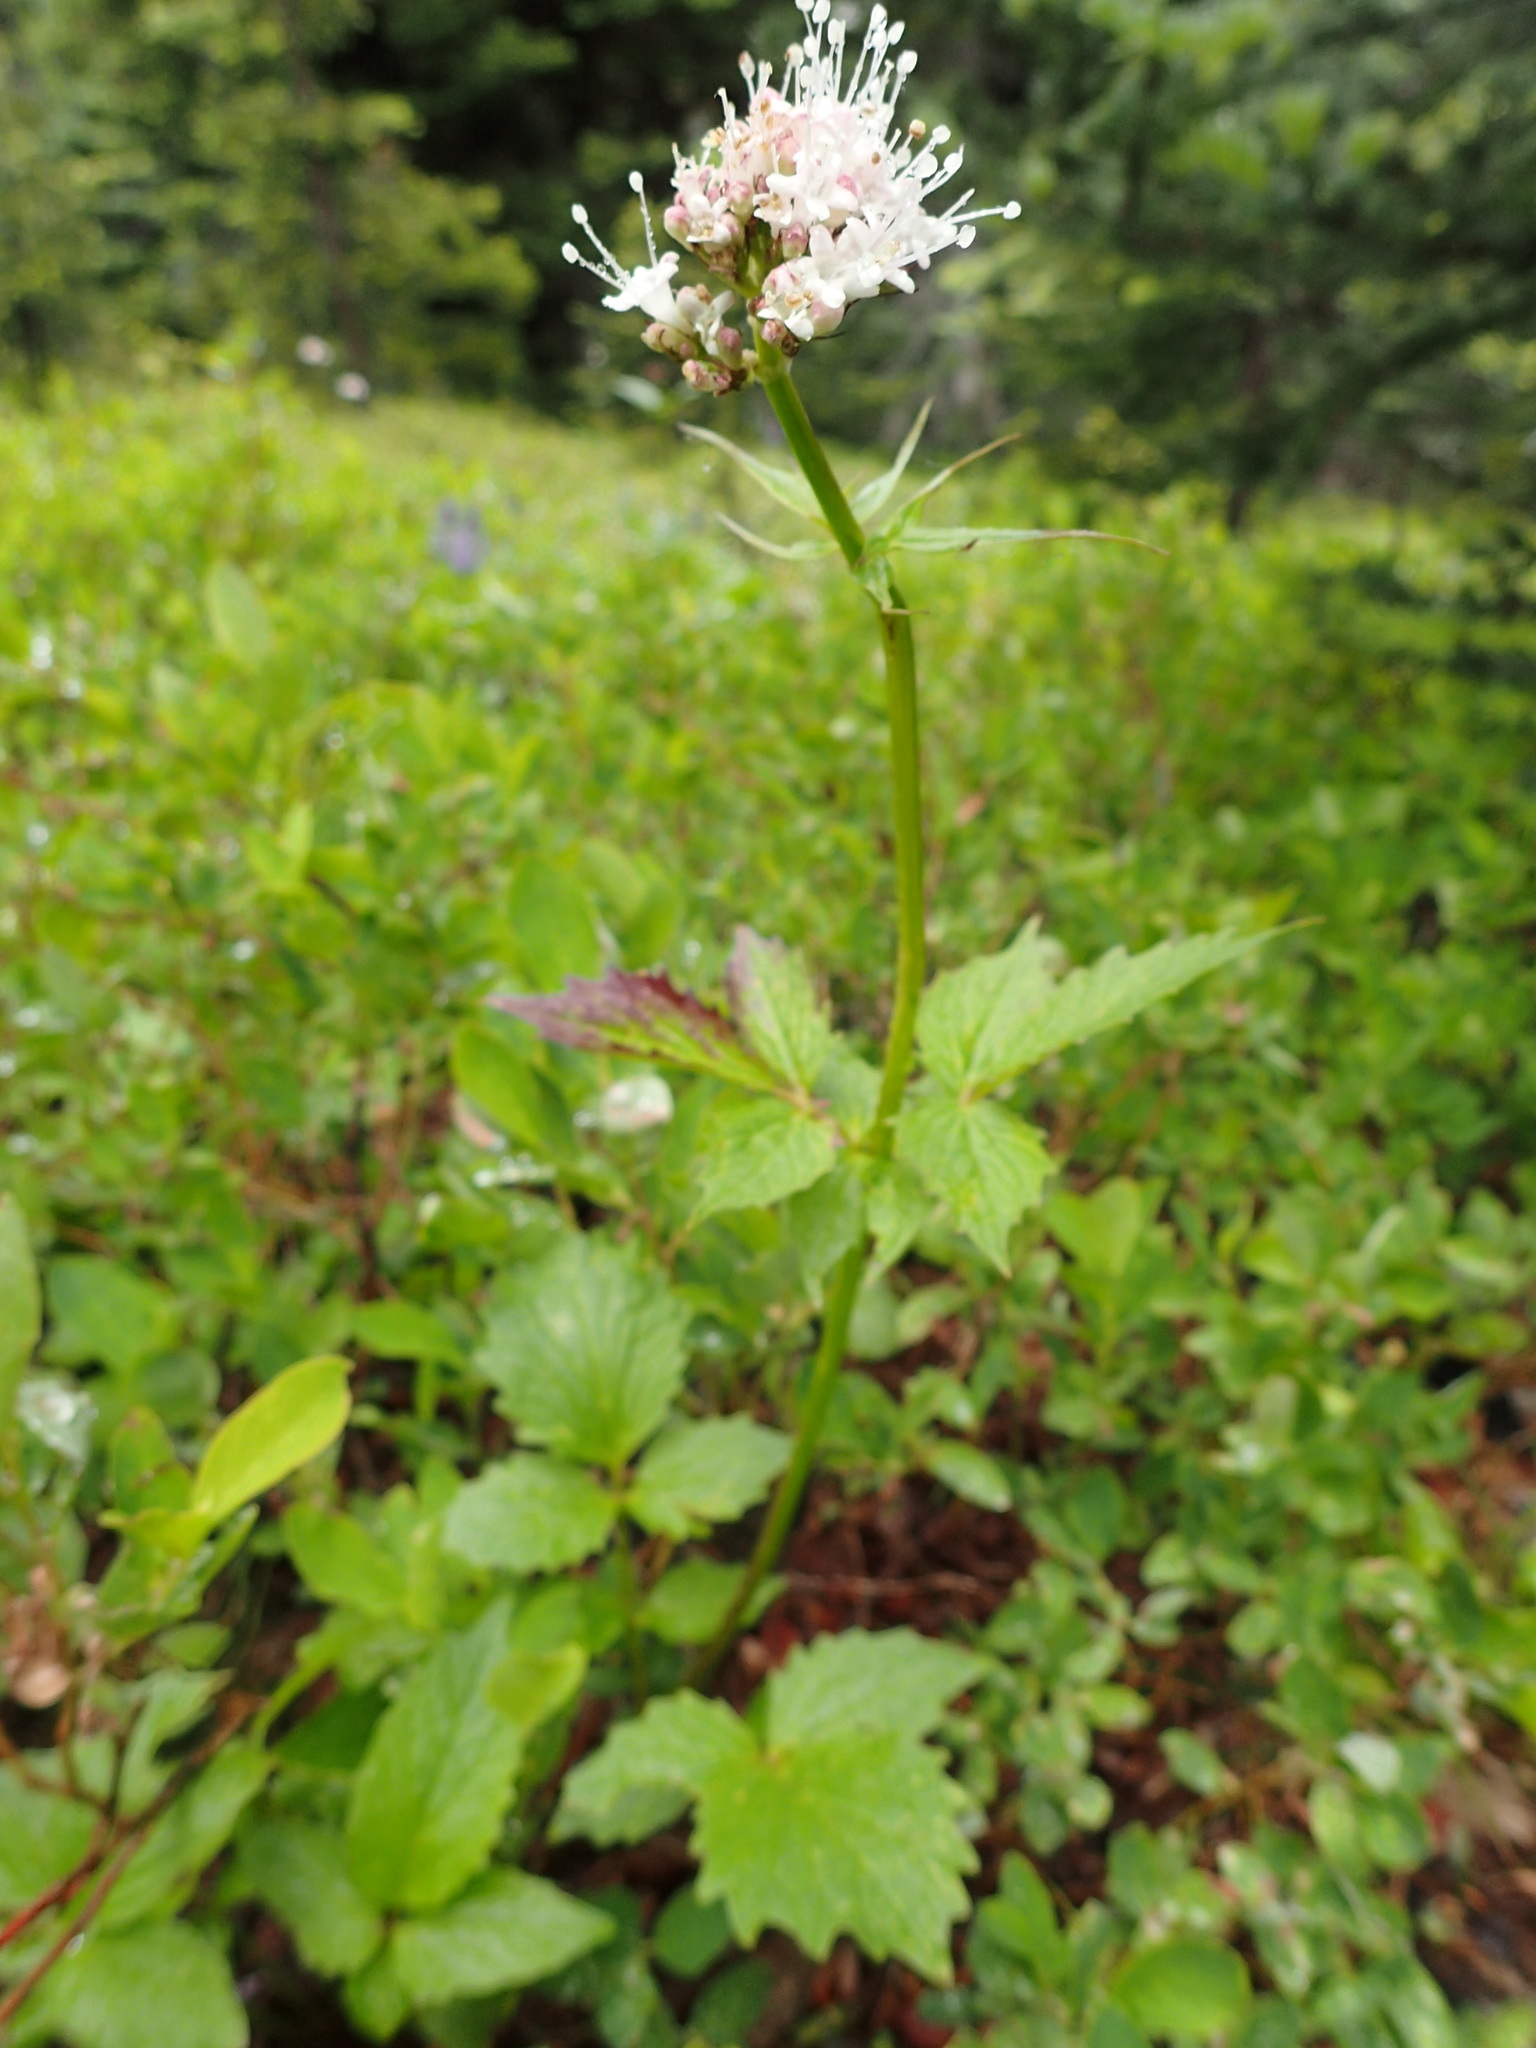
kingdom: Plantae
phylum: Tracheophyta
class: Magnoliopsida
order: Dipsacales
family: Caprifoliaceae
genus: Valeriana
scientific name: Valeriana sitchensis
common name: Pacific valerian
